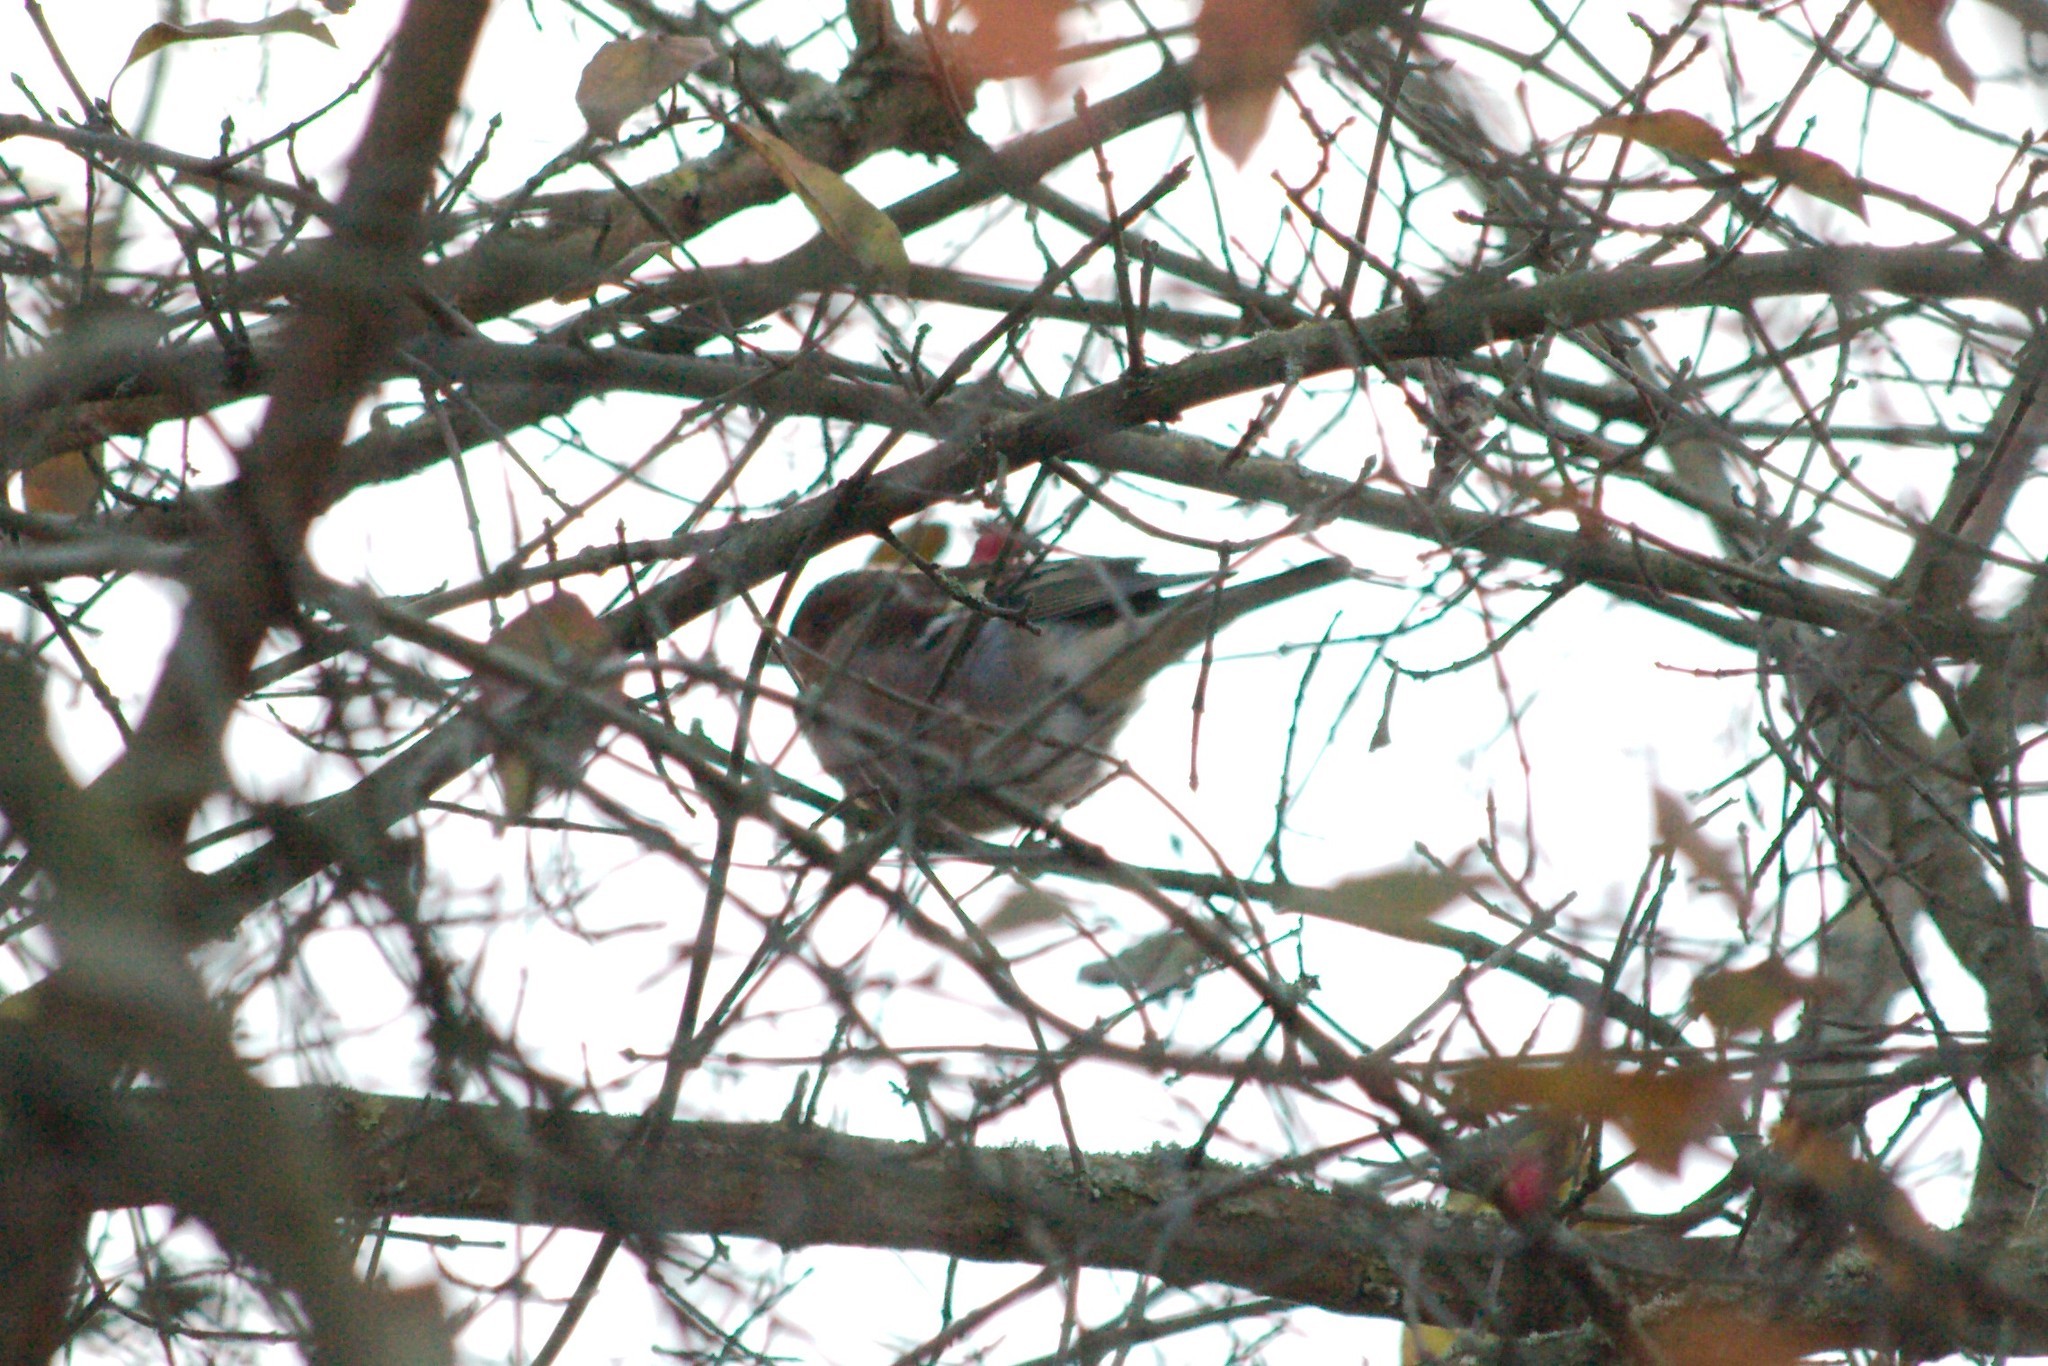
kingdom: Animalia
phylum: Chordata
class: Aves
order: Passeriformes
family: Fringillidae
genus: Fringilla
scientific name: Fringilla coelebs
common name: Common chaffinch
